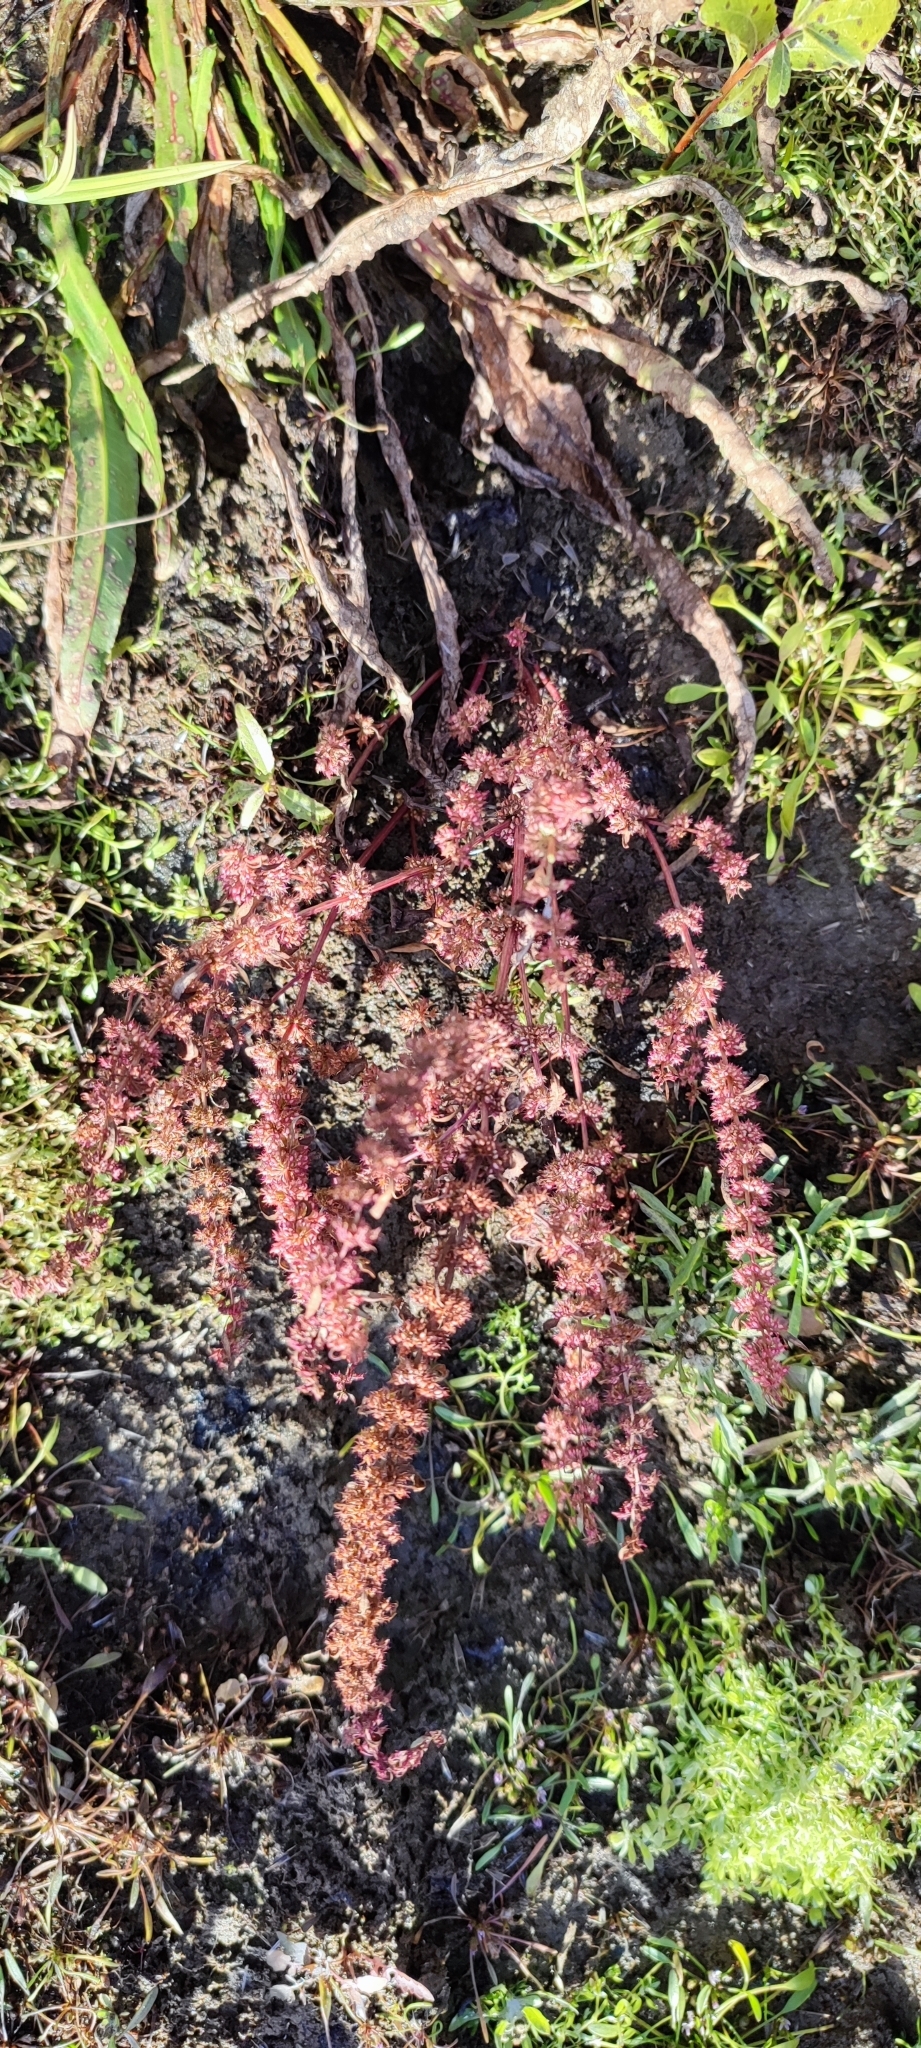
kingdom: Plantae
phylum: Tracheophyta
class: Magnoliopsida
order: Caryophyllales
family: Polygonaceae
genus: Rumex
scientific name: Rumex ucranicus
